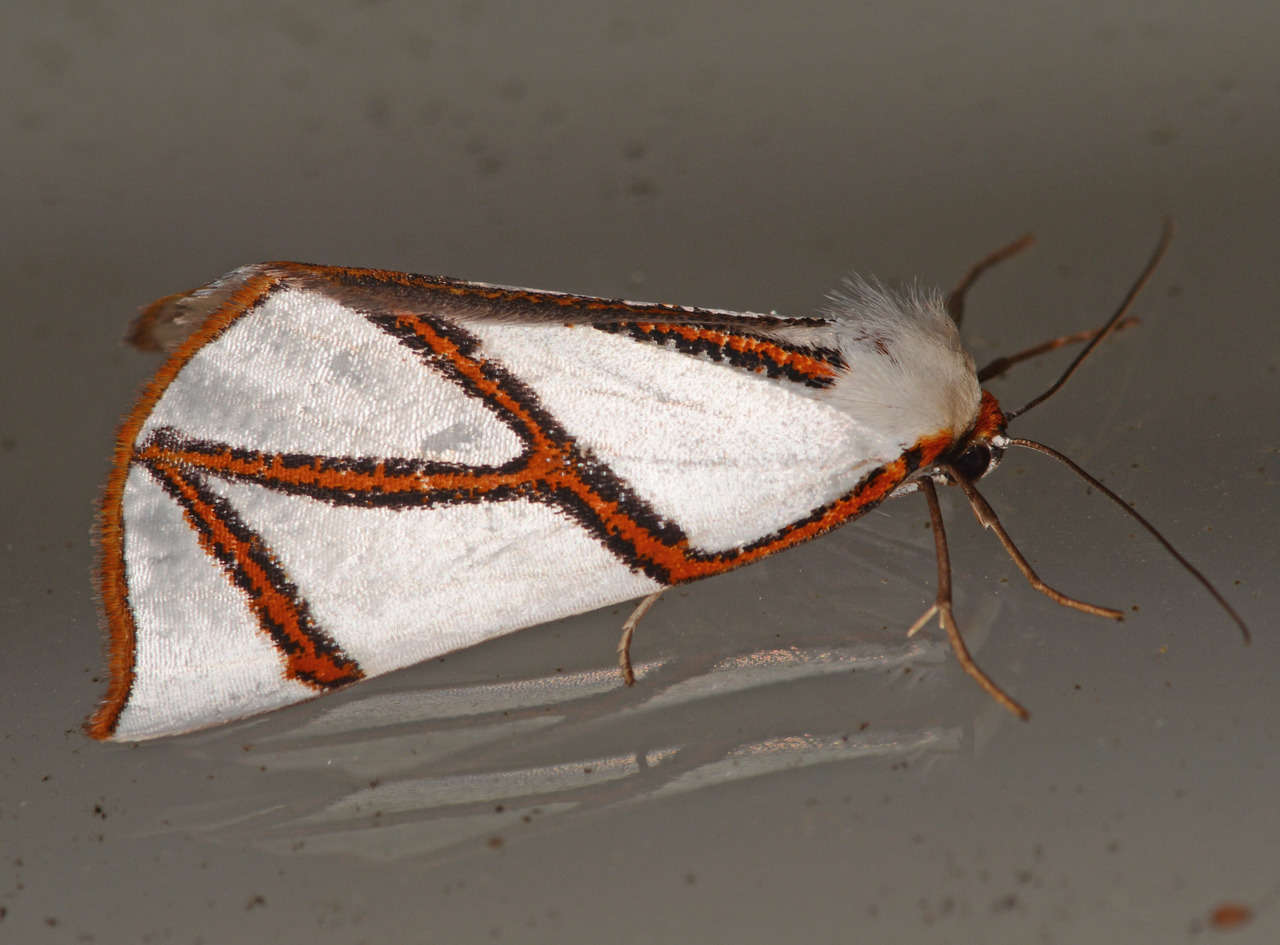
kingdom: Animalia
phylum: Arthropoda
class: Insecta
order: Lepidoptera
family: Geometridae
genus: Thalaina
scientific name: Thalaina clara
